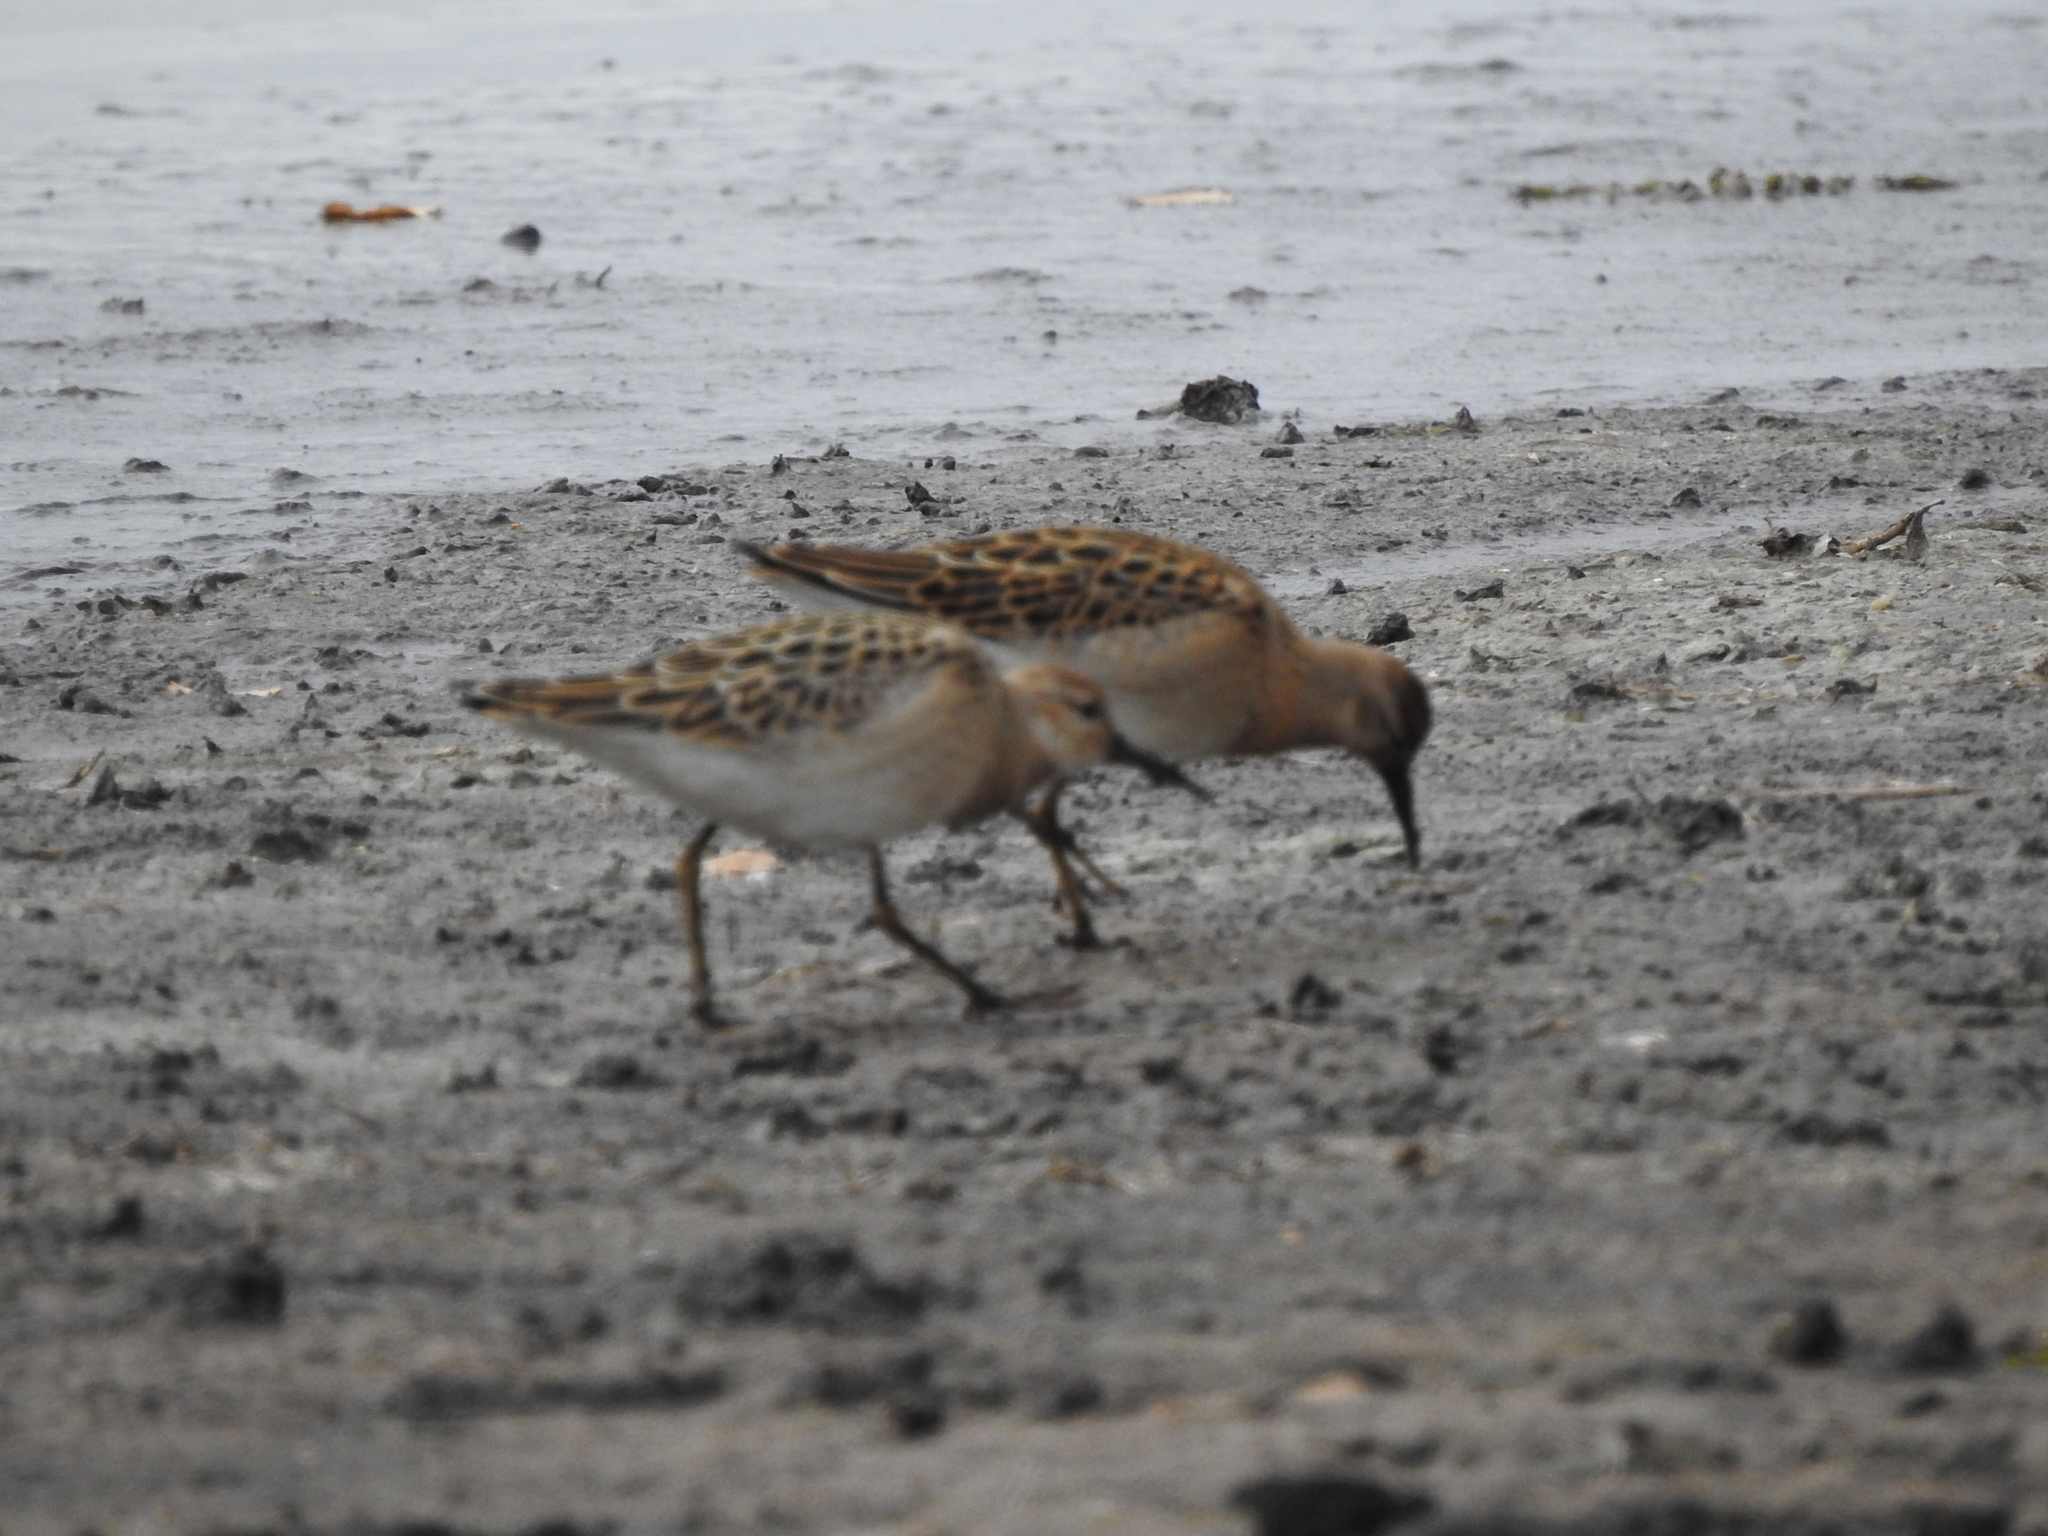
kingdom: Animalia
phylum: Chordata
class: Aves
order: Charadriiformes
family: Scolopacidae
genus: Calidris
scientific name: Calidris pugnax
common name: Ruff
